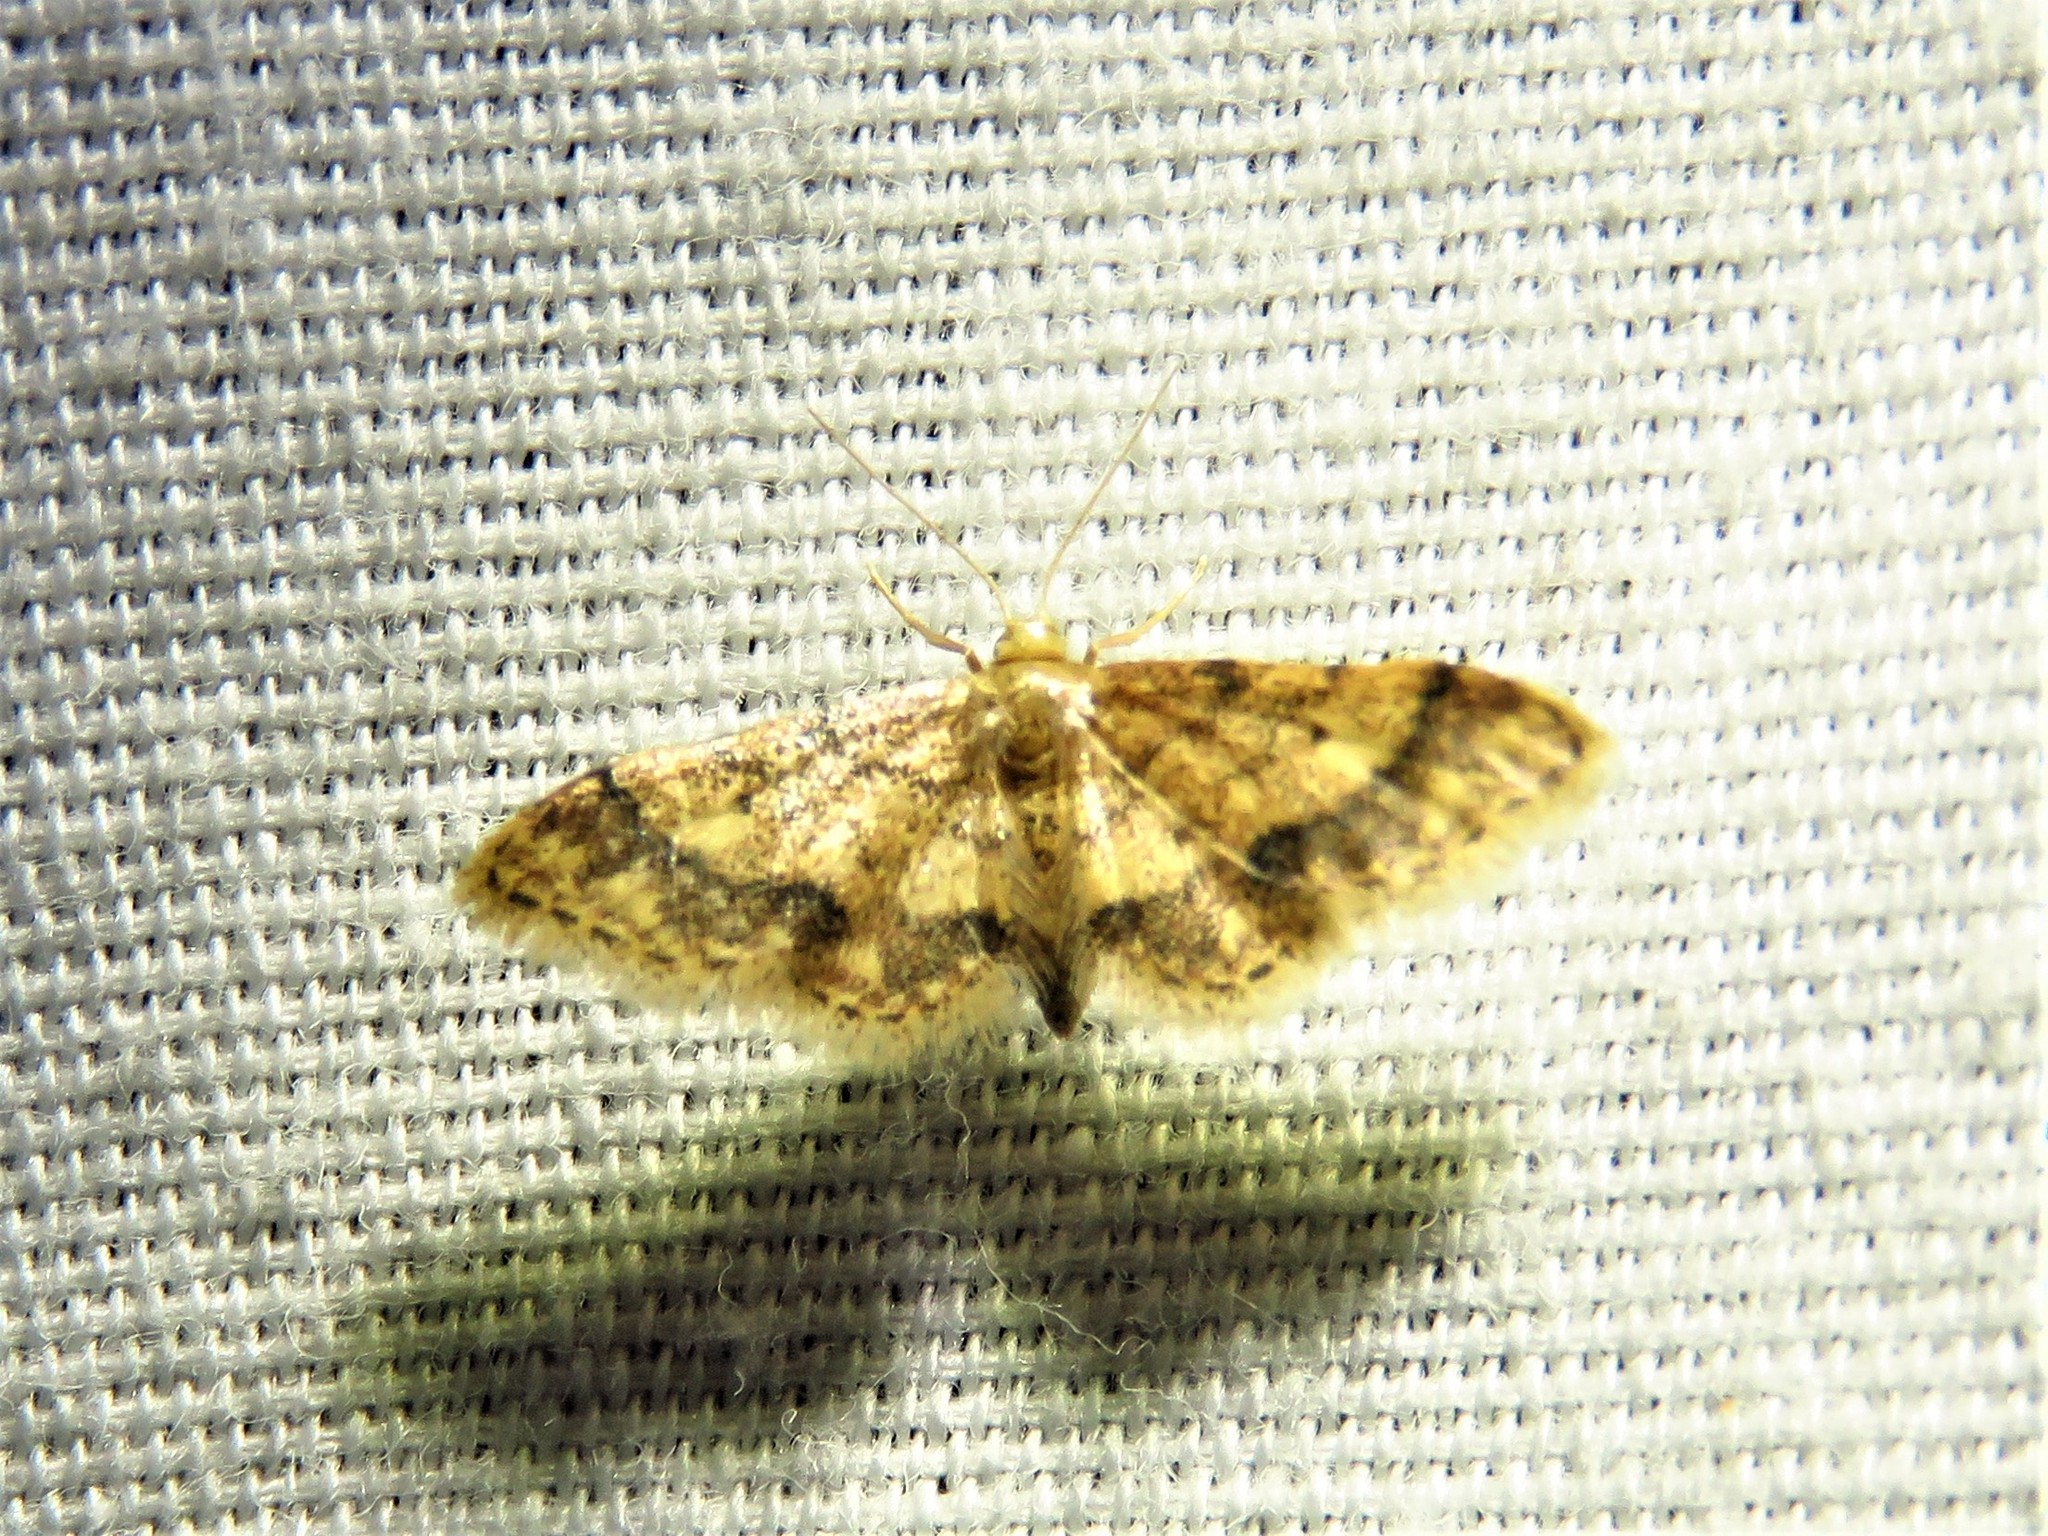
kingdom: Animalia
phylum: Arthropoda
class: Insecta
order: Lepidoptera
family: Geometridae
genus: Idaea
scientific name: Idaea celtima
